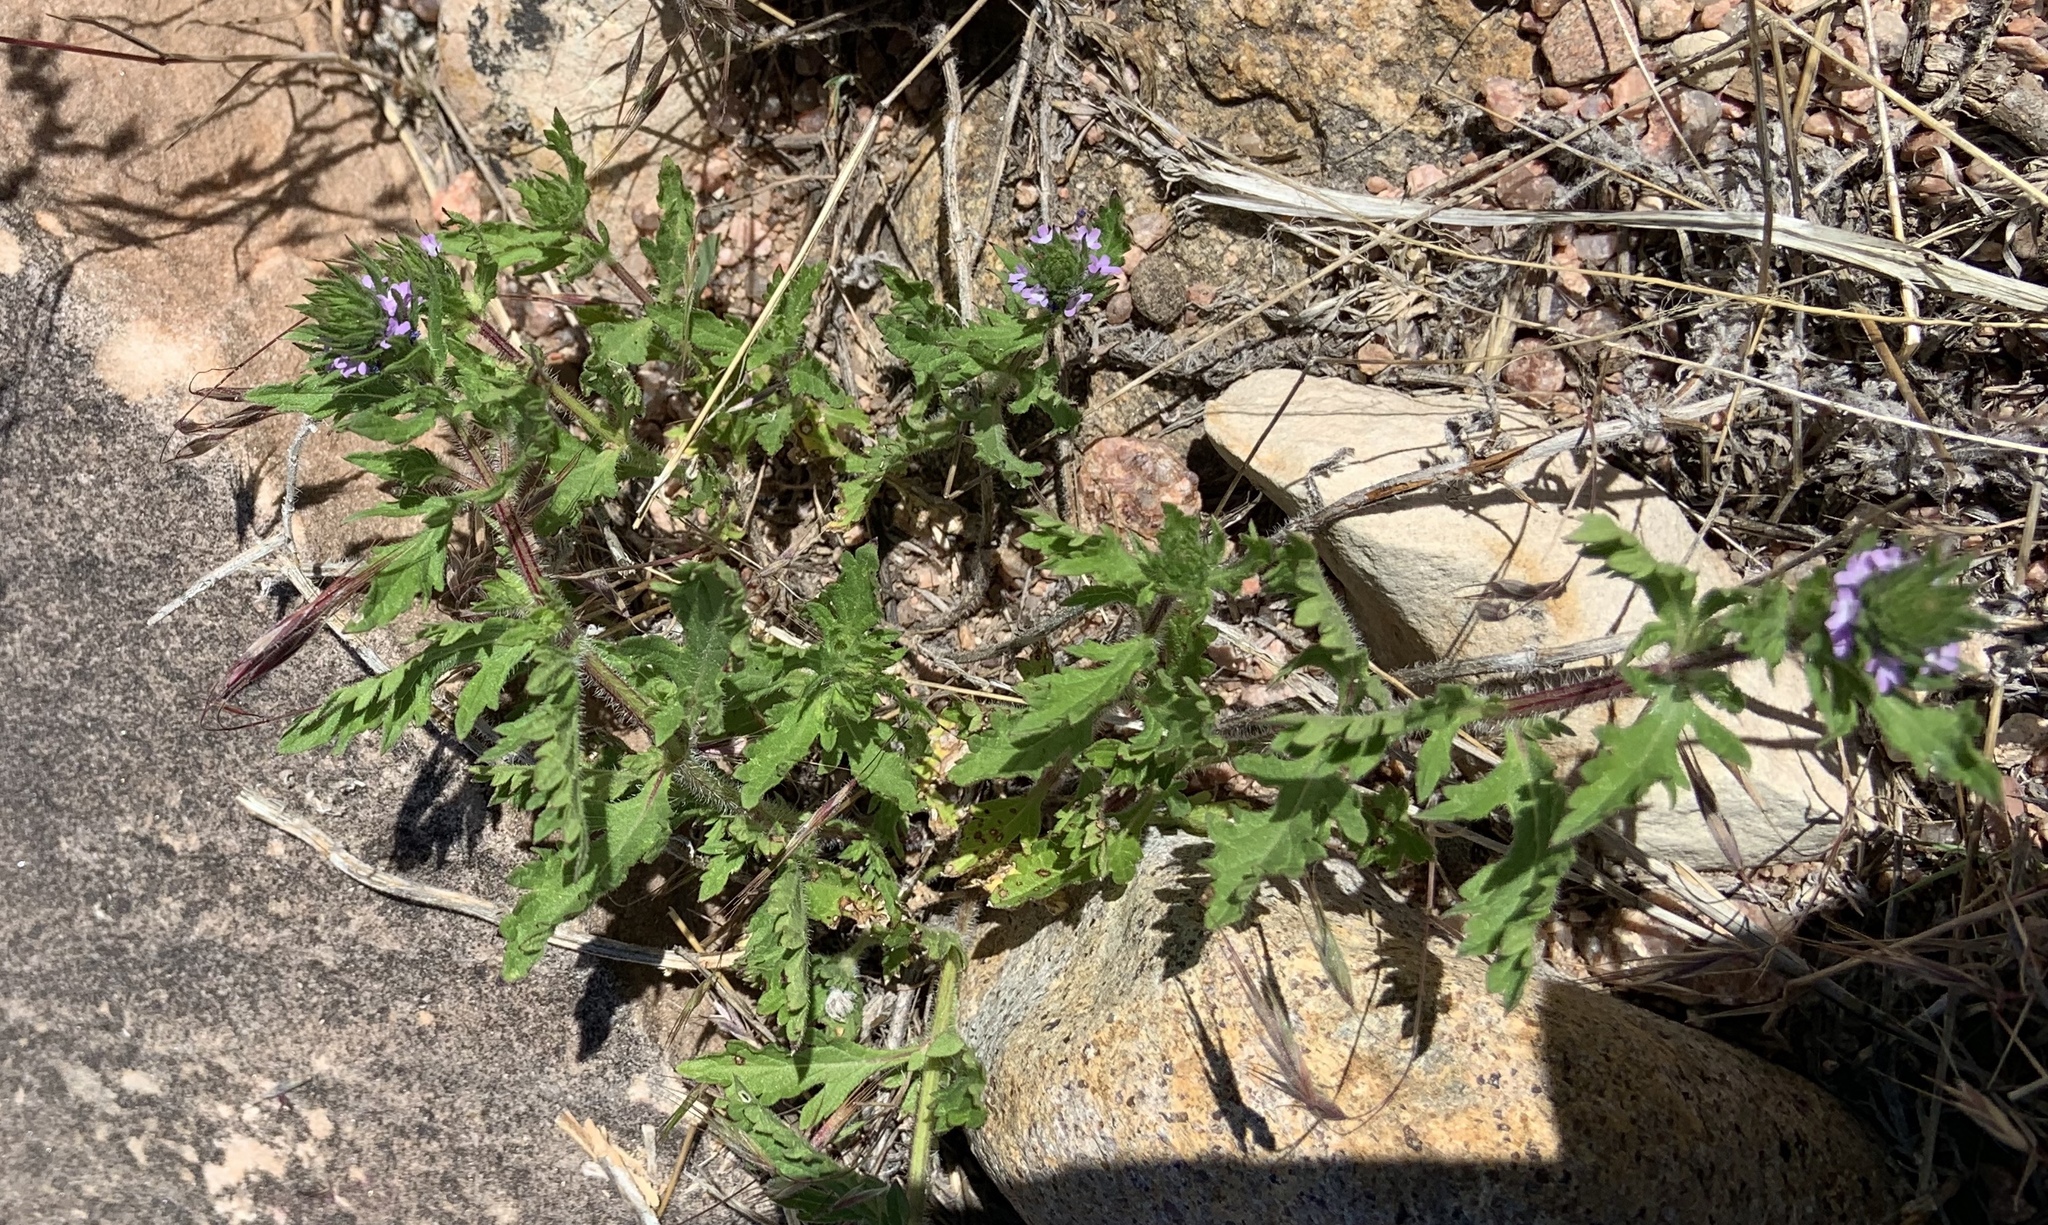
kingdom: Plantae
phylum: Tracheophyta
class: Magnoliopsida
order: Lamiales
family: Verbenaceae
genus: Verbena
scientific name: Verbena bracteata
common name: Bracted vervain
